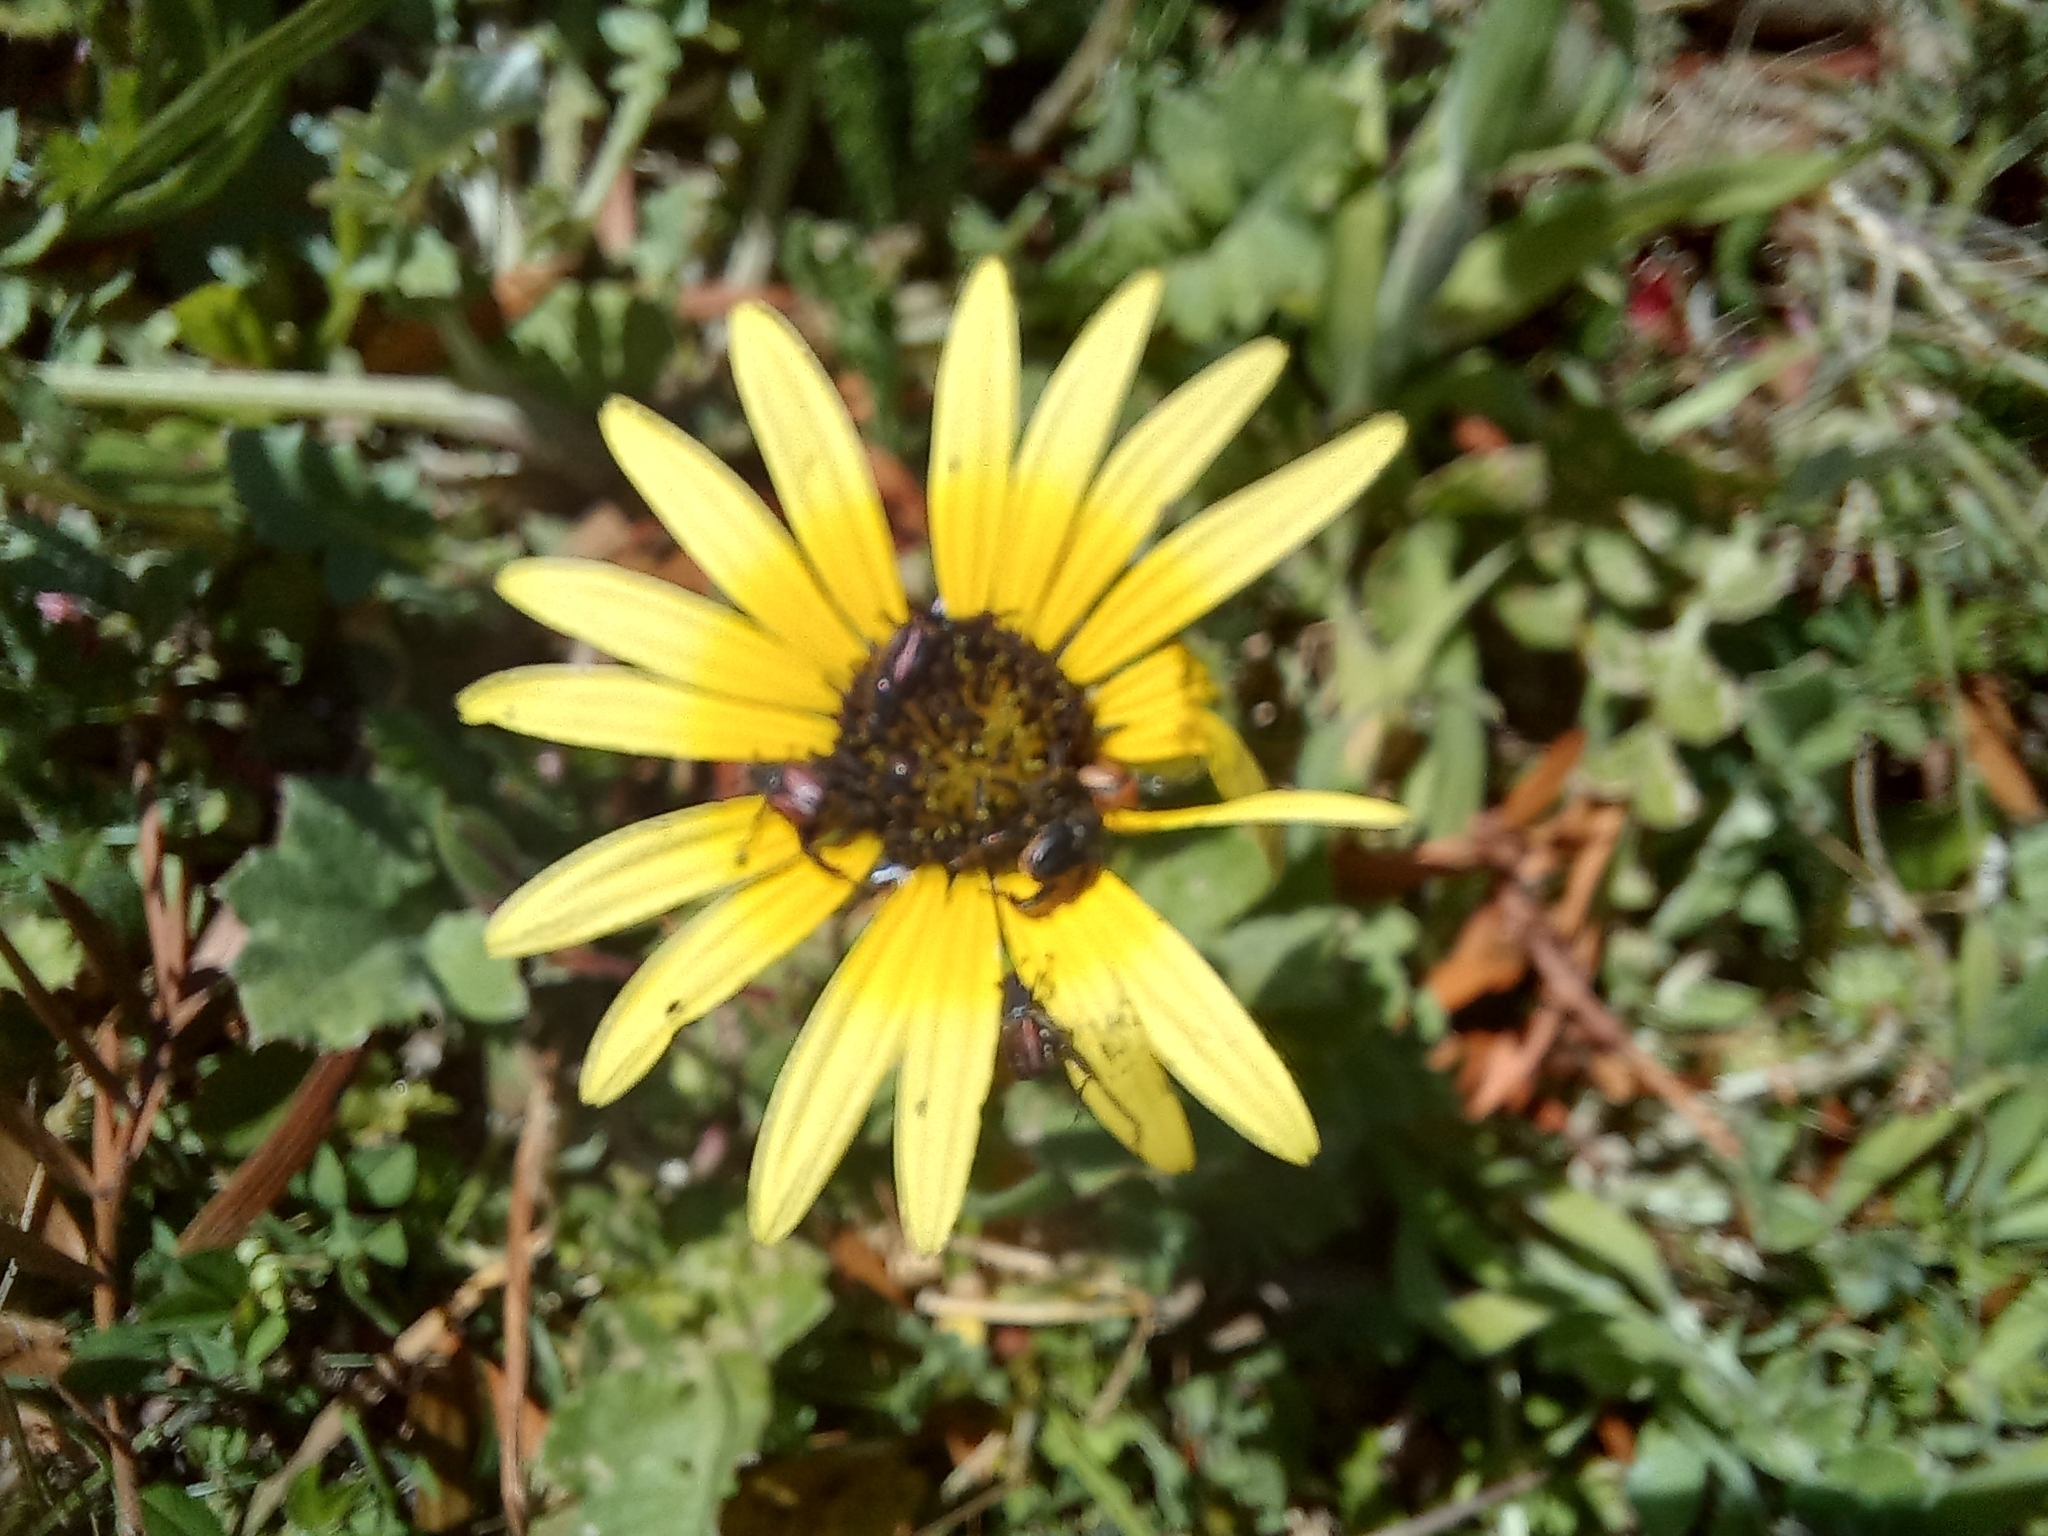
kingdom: Plantae
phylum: Tracheophyta
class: Magnoliopsida
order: Asterales
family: Asteraceae
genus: Arctotheca
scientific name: Arctotheca calendula
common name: Capeweed
